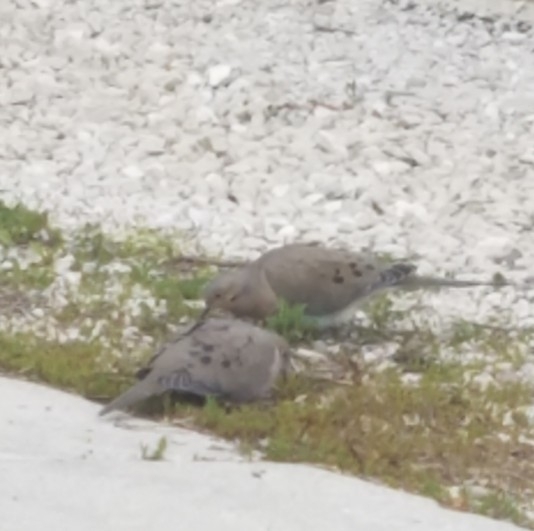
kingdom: Animalia
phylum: Chordata
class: Aves
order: Columbiformes
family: Columbidae
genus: Zenaida
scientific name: Zenaida macroura
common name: Mourning dove
